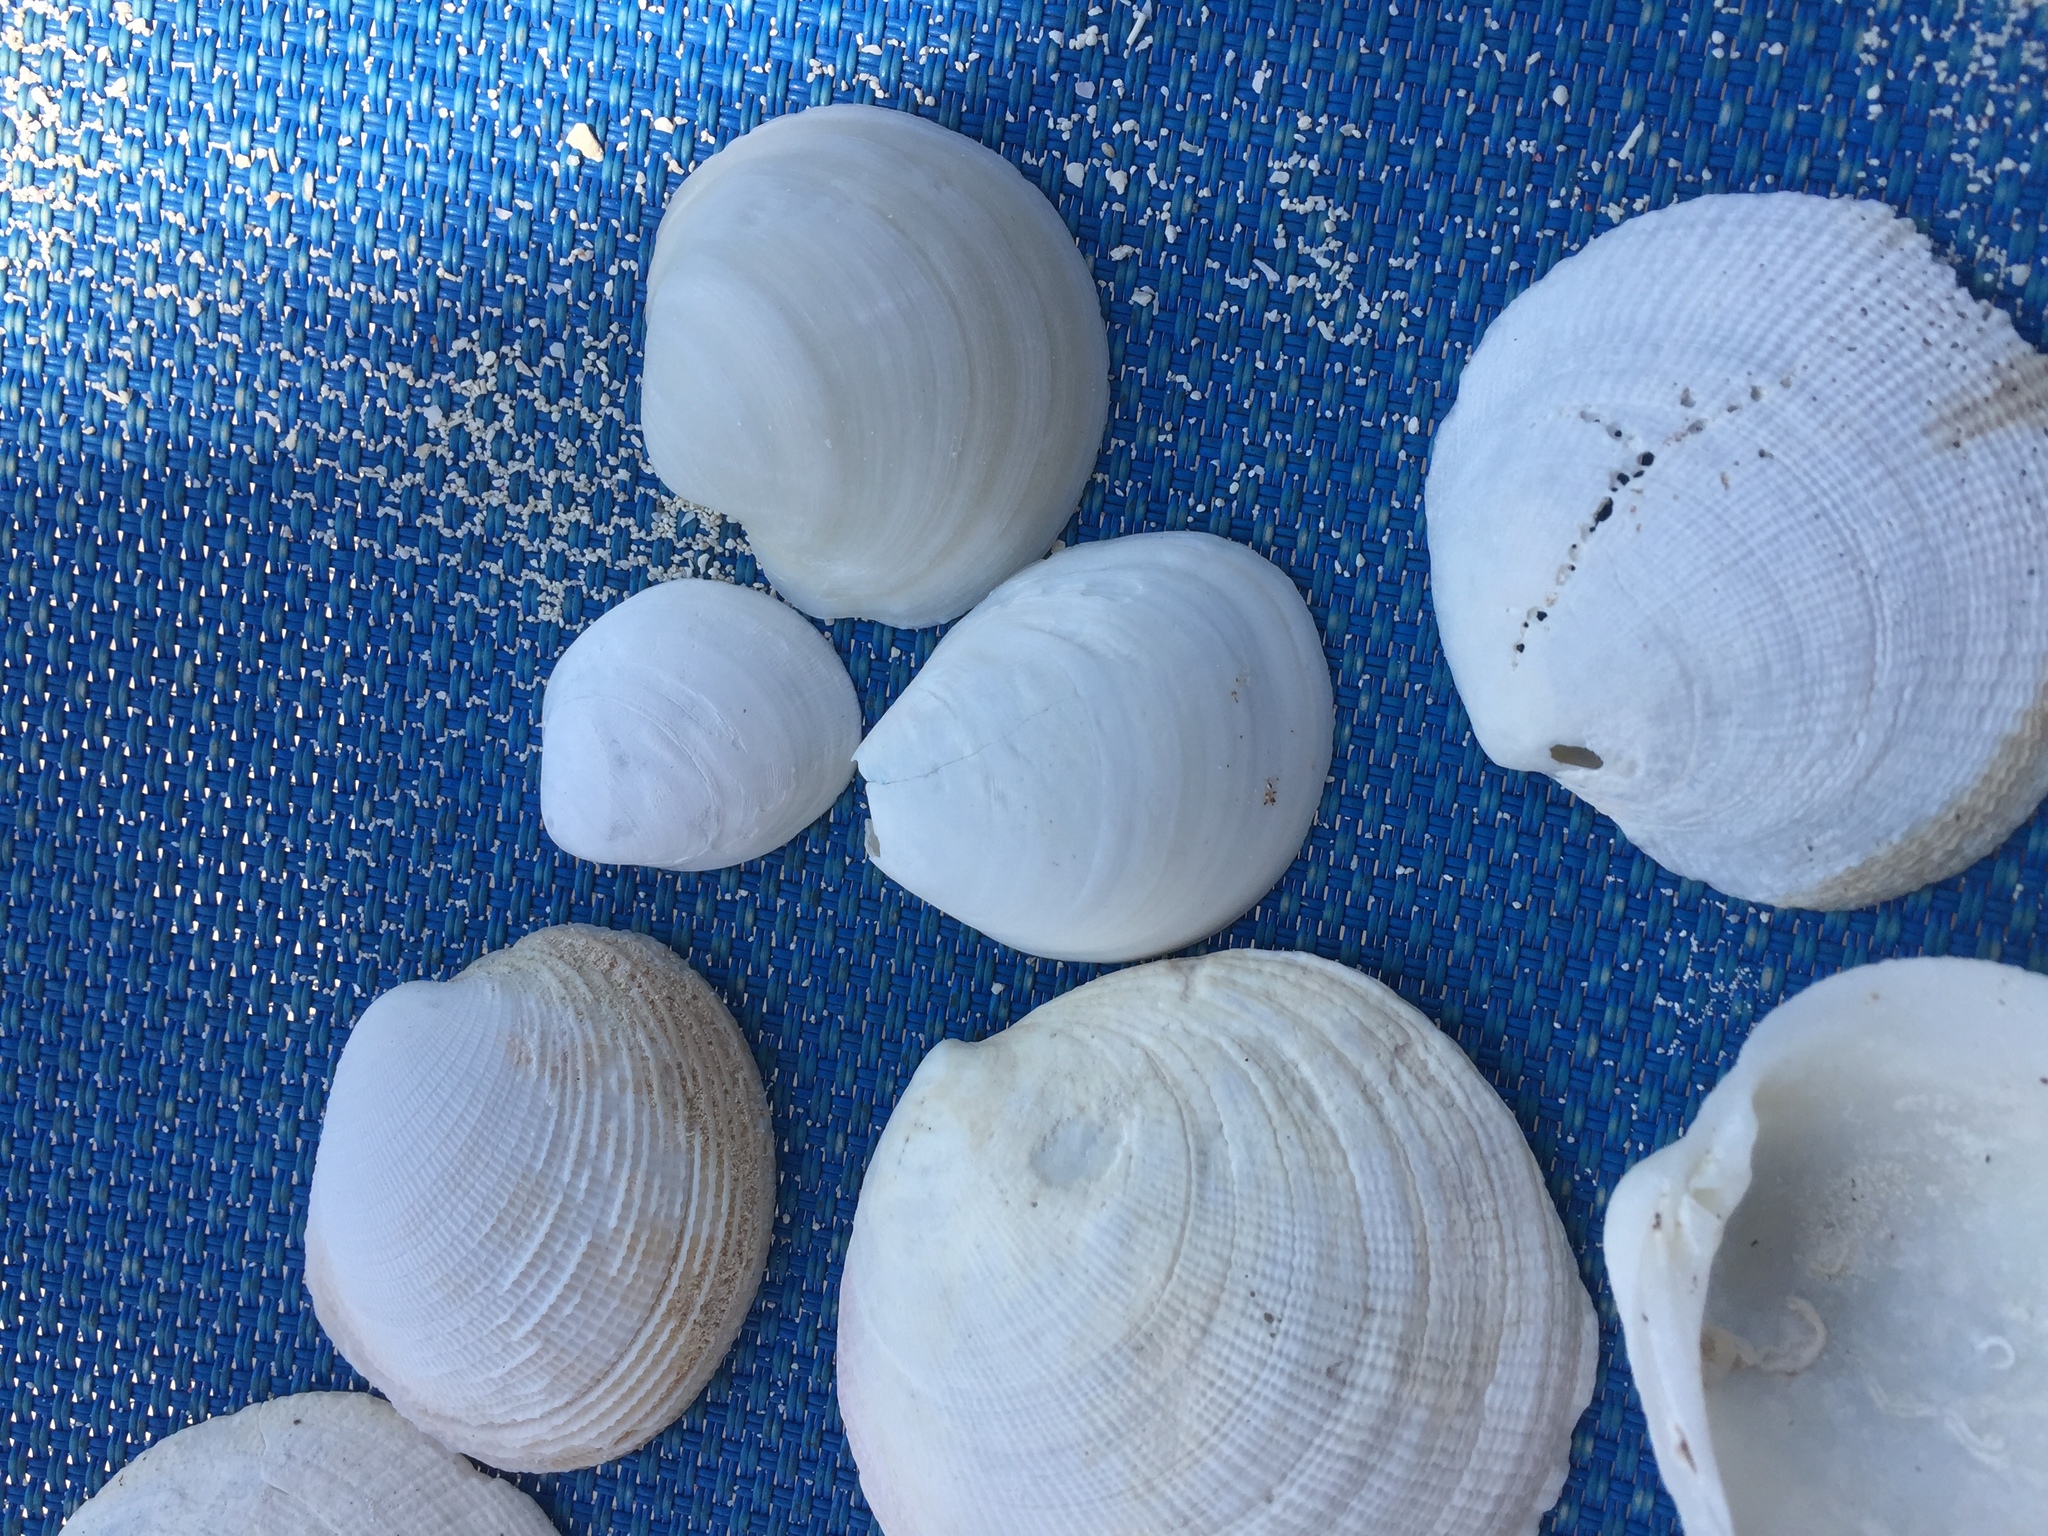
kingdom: Animalia
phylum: Mollusca
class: Bivalvia
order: Cardiida
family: Cardiidae
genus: Laevicardium
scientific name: Laevicardium serratum
